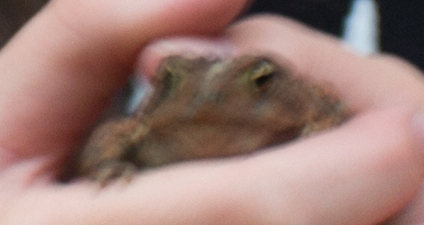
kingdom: Animalia
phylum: Chordata
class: Amphibia
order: Anura
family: Bufonidae
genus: Anaxyrus
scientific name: Anaxyrus americanus
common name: American toad
